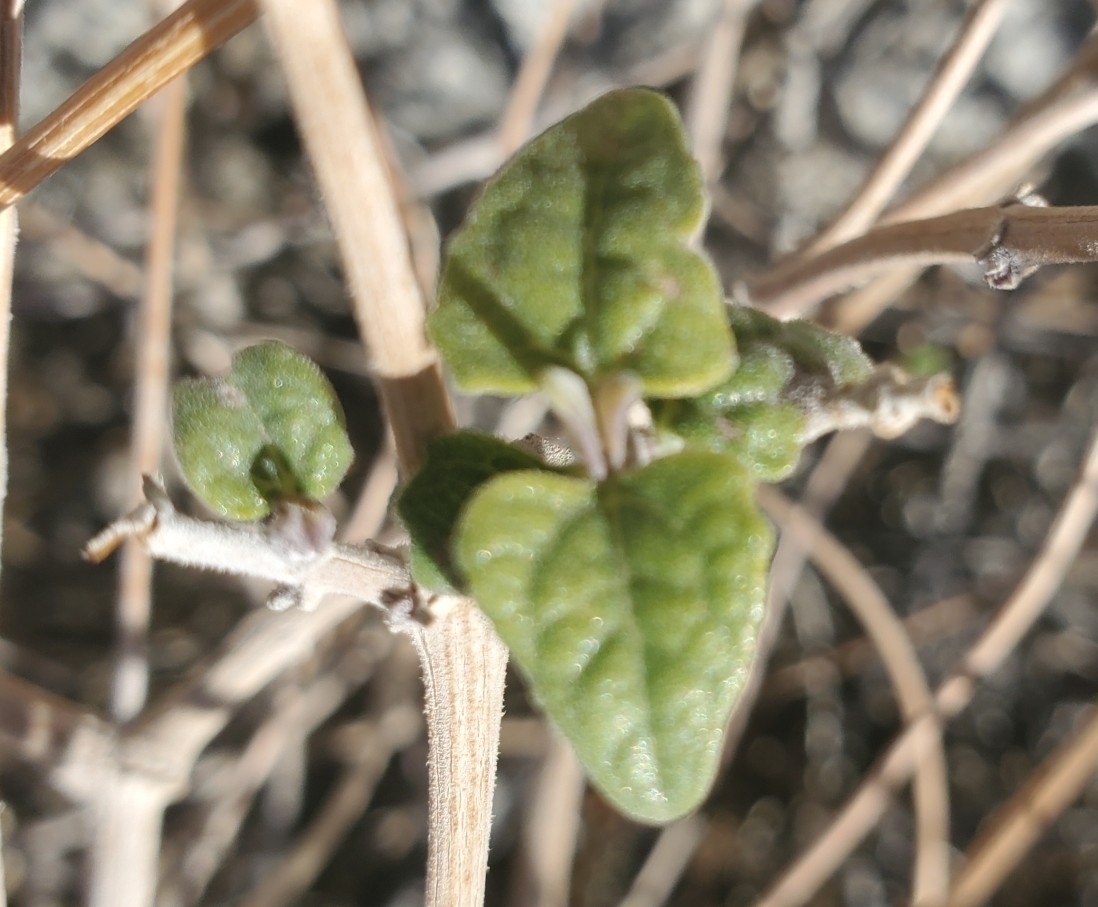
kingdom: Plantae
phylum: Tracheophyta
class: Magnoliopsida
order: Asterales
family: Asteraceae
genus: Bahiopsis
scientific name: Bahiopsis parishii
